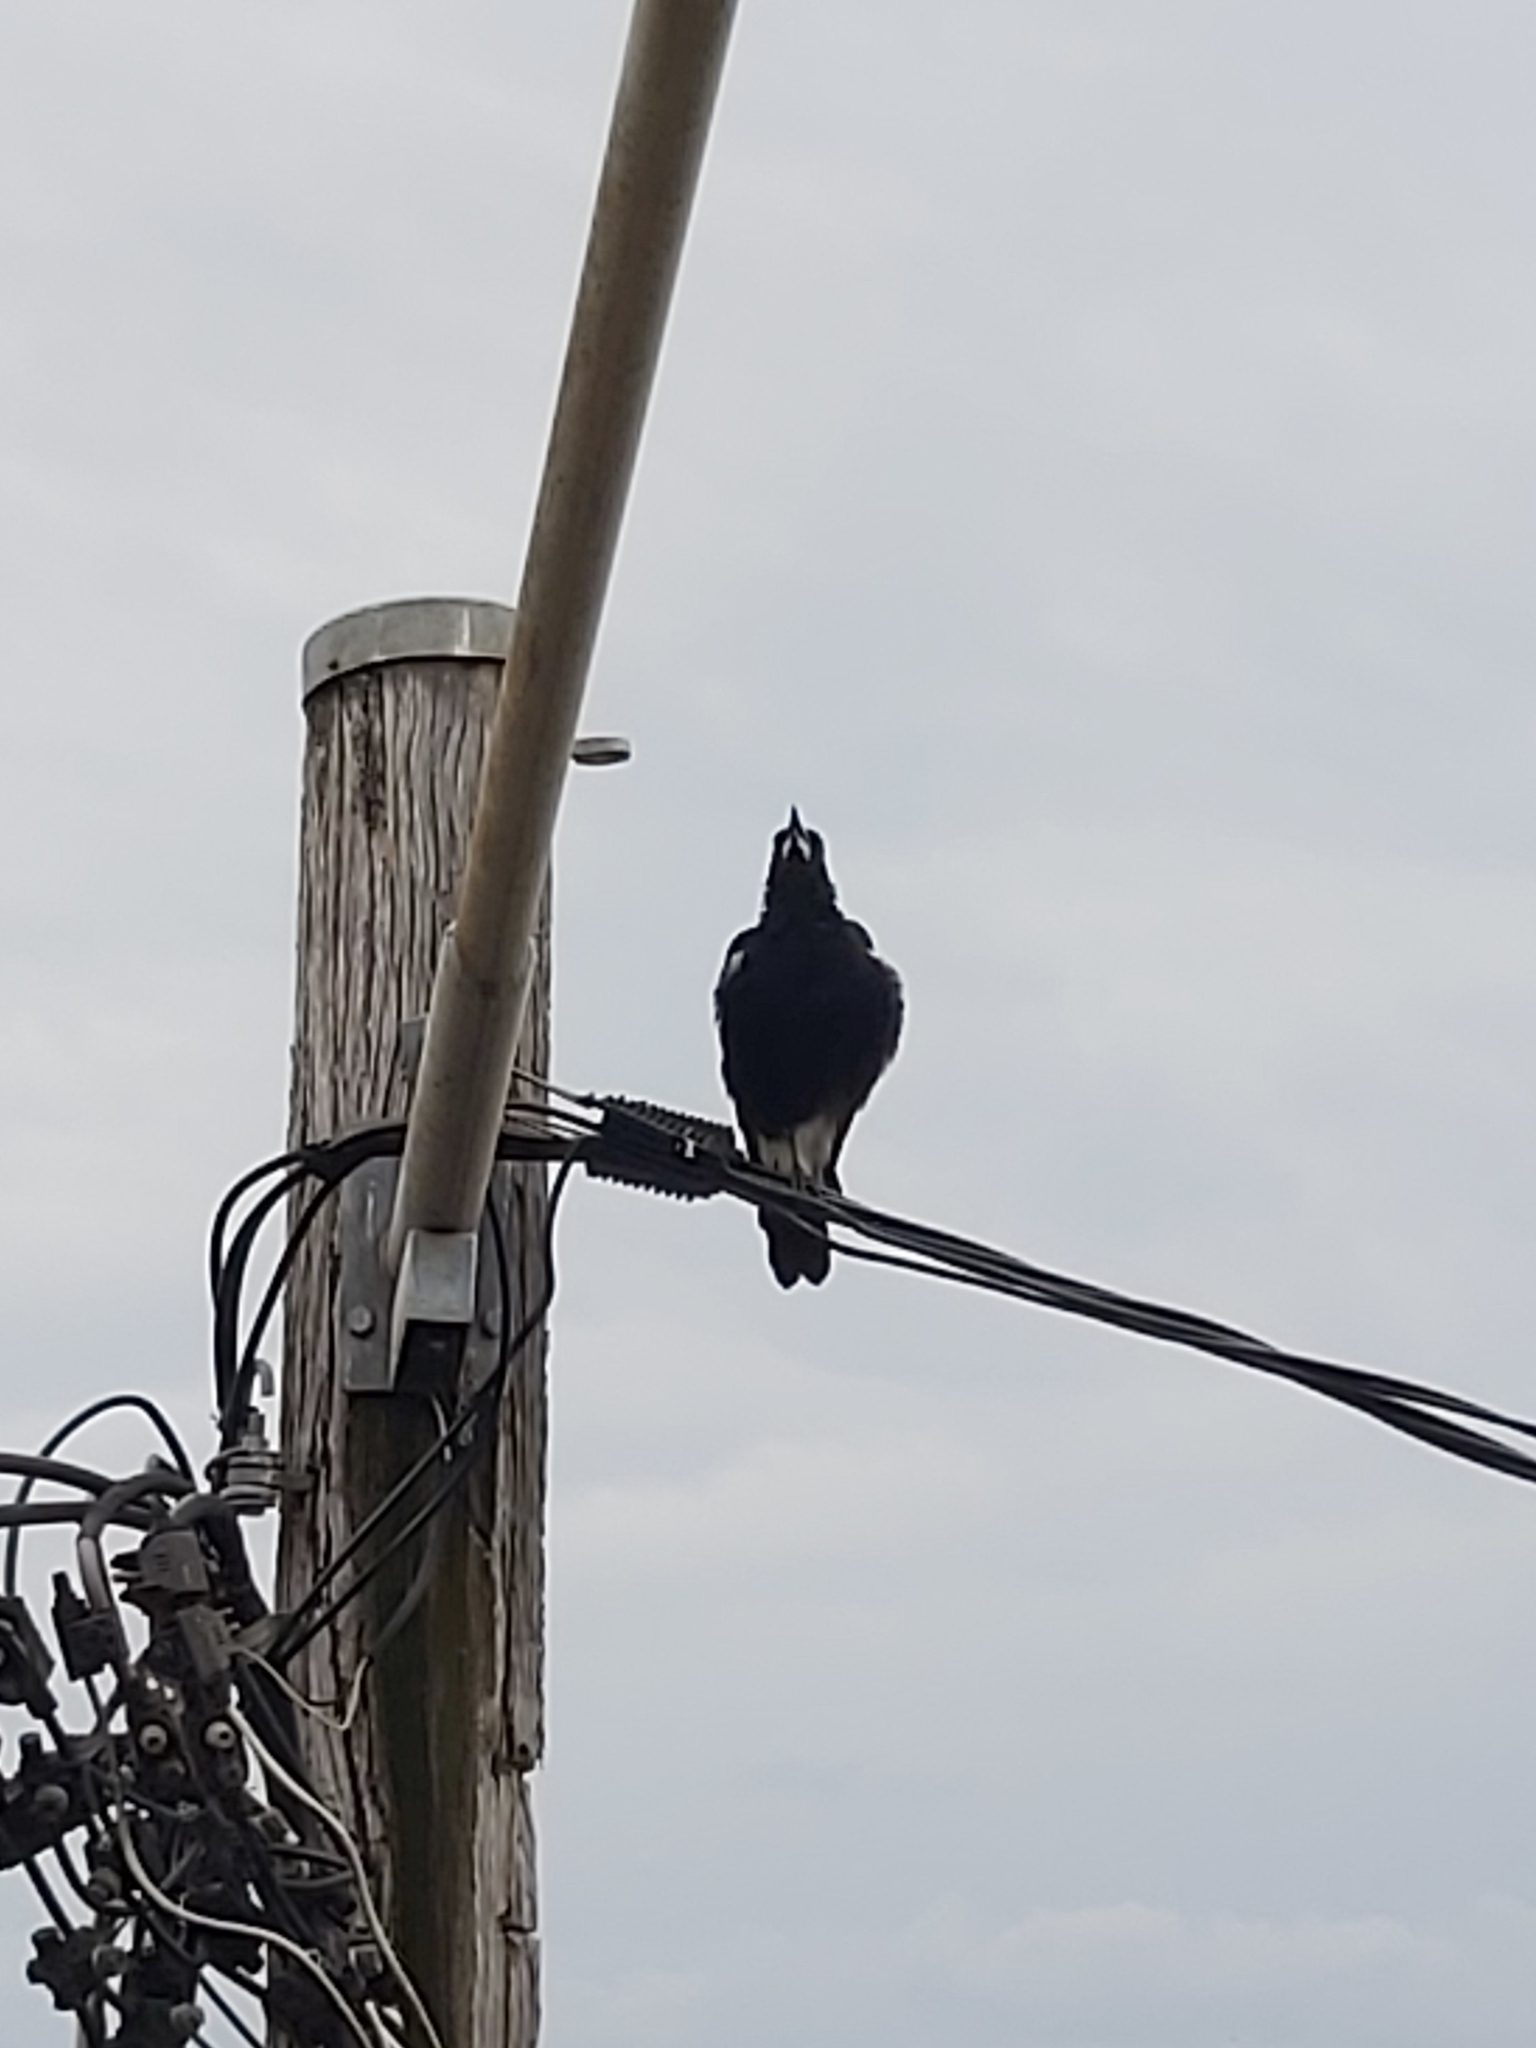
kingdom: Animalia
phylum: Chordata
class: Aves
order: Passeriformes
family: Cracticidae
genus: Gymnorhina
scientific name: Gymnorhina tibicen
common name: Australian magpie
